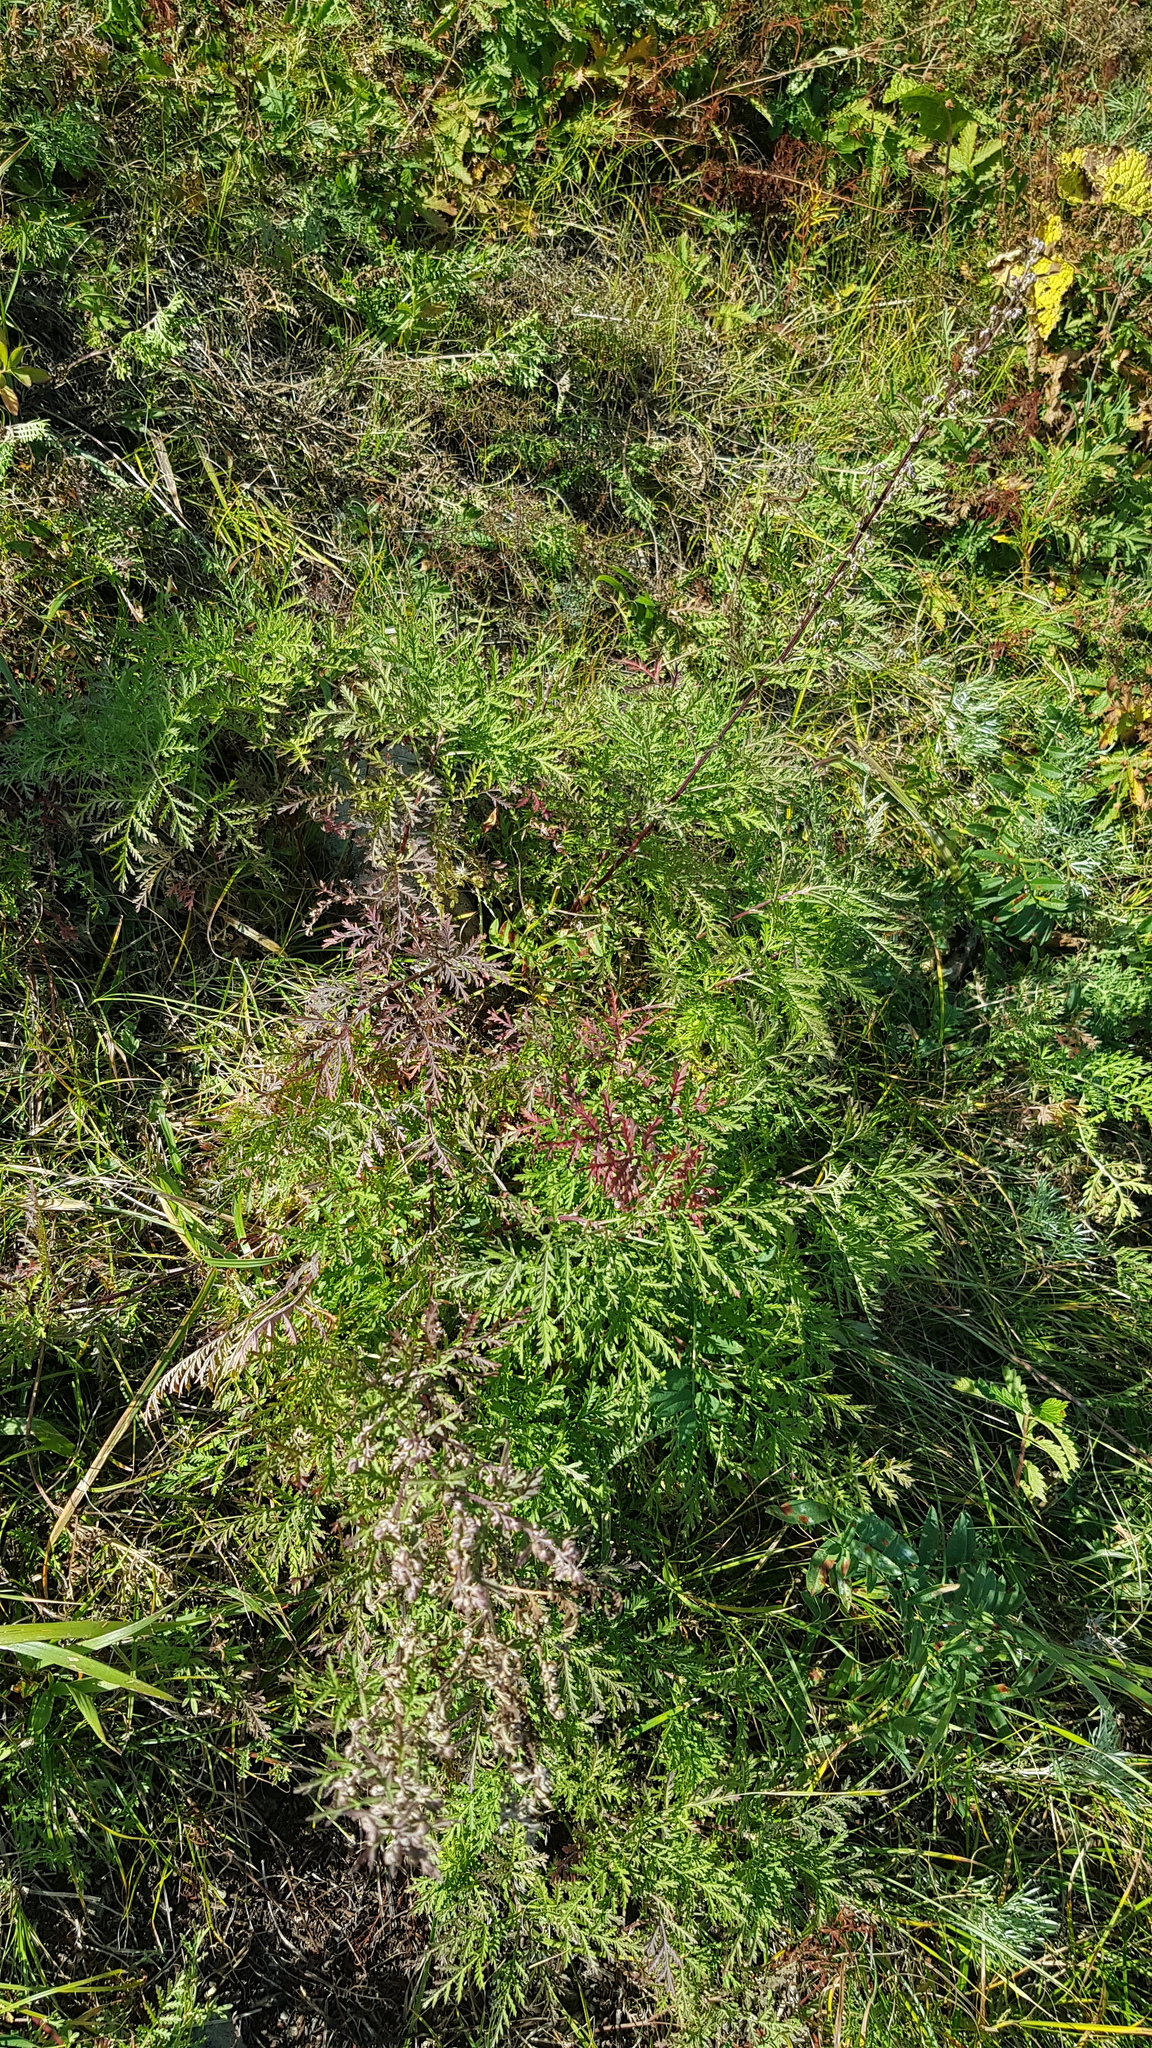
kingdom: Plantae
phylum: Tracheophyta
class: Magnoliopsida
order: Asterales
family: Asteraceae
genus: Artemisia
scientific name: Artemisia gmelinii
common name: Gmelin's wormwood
